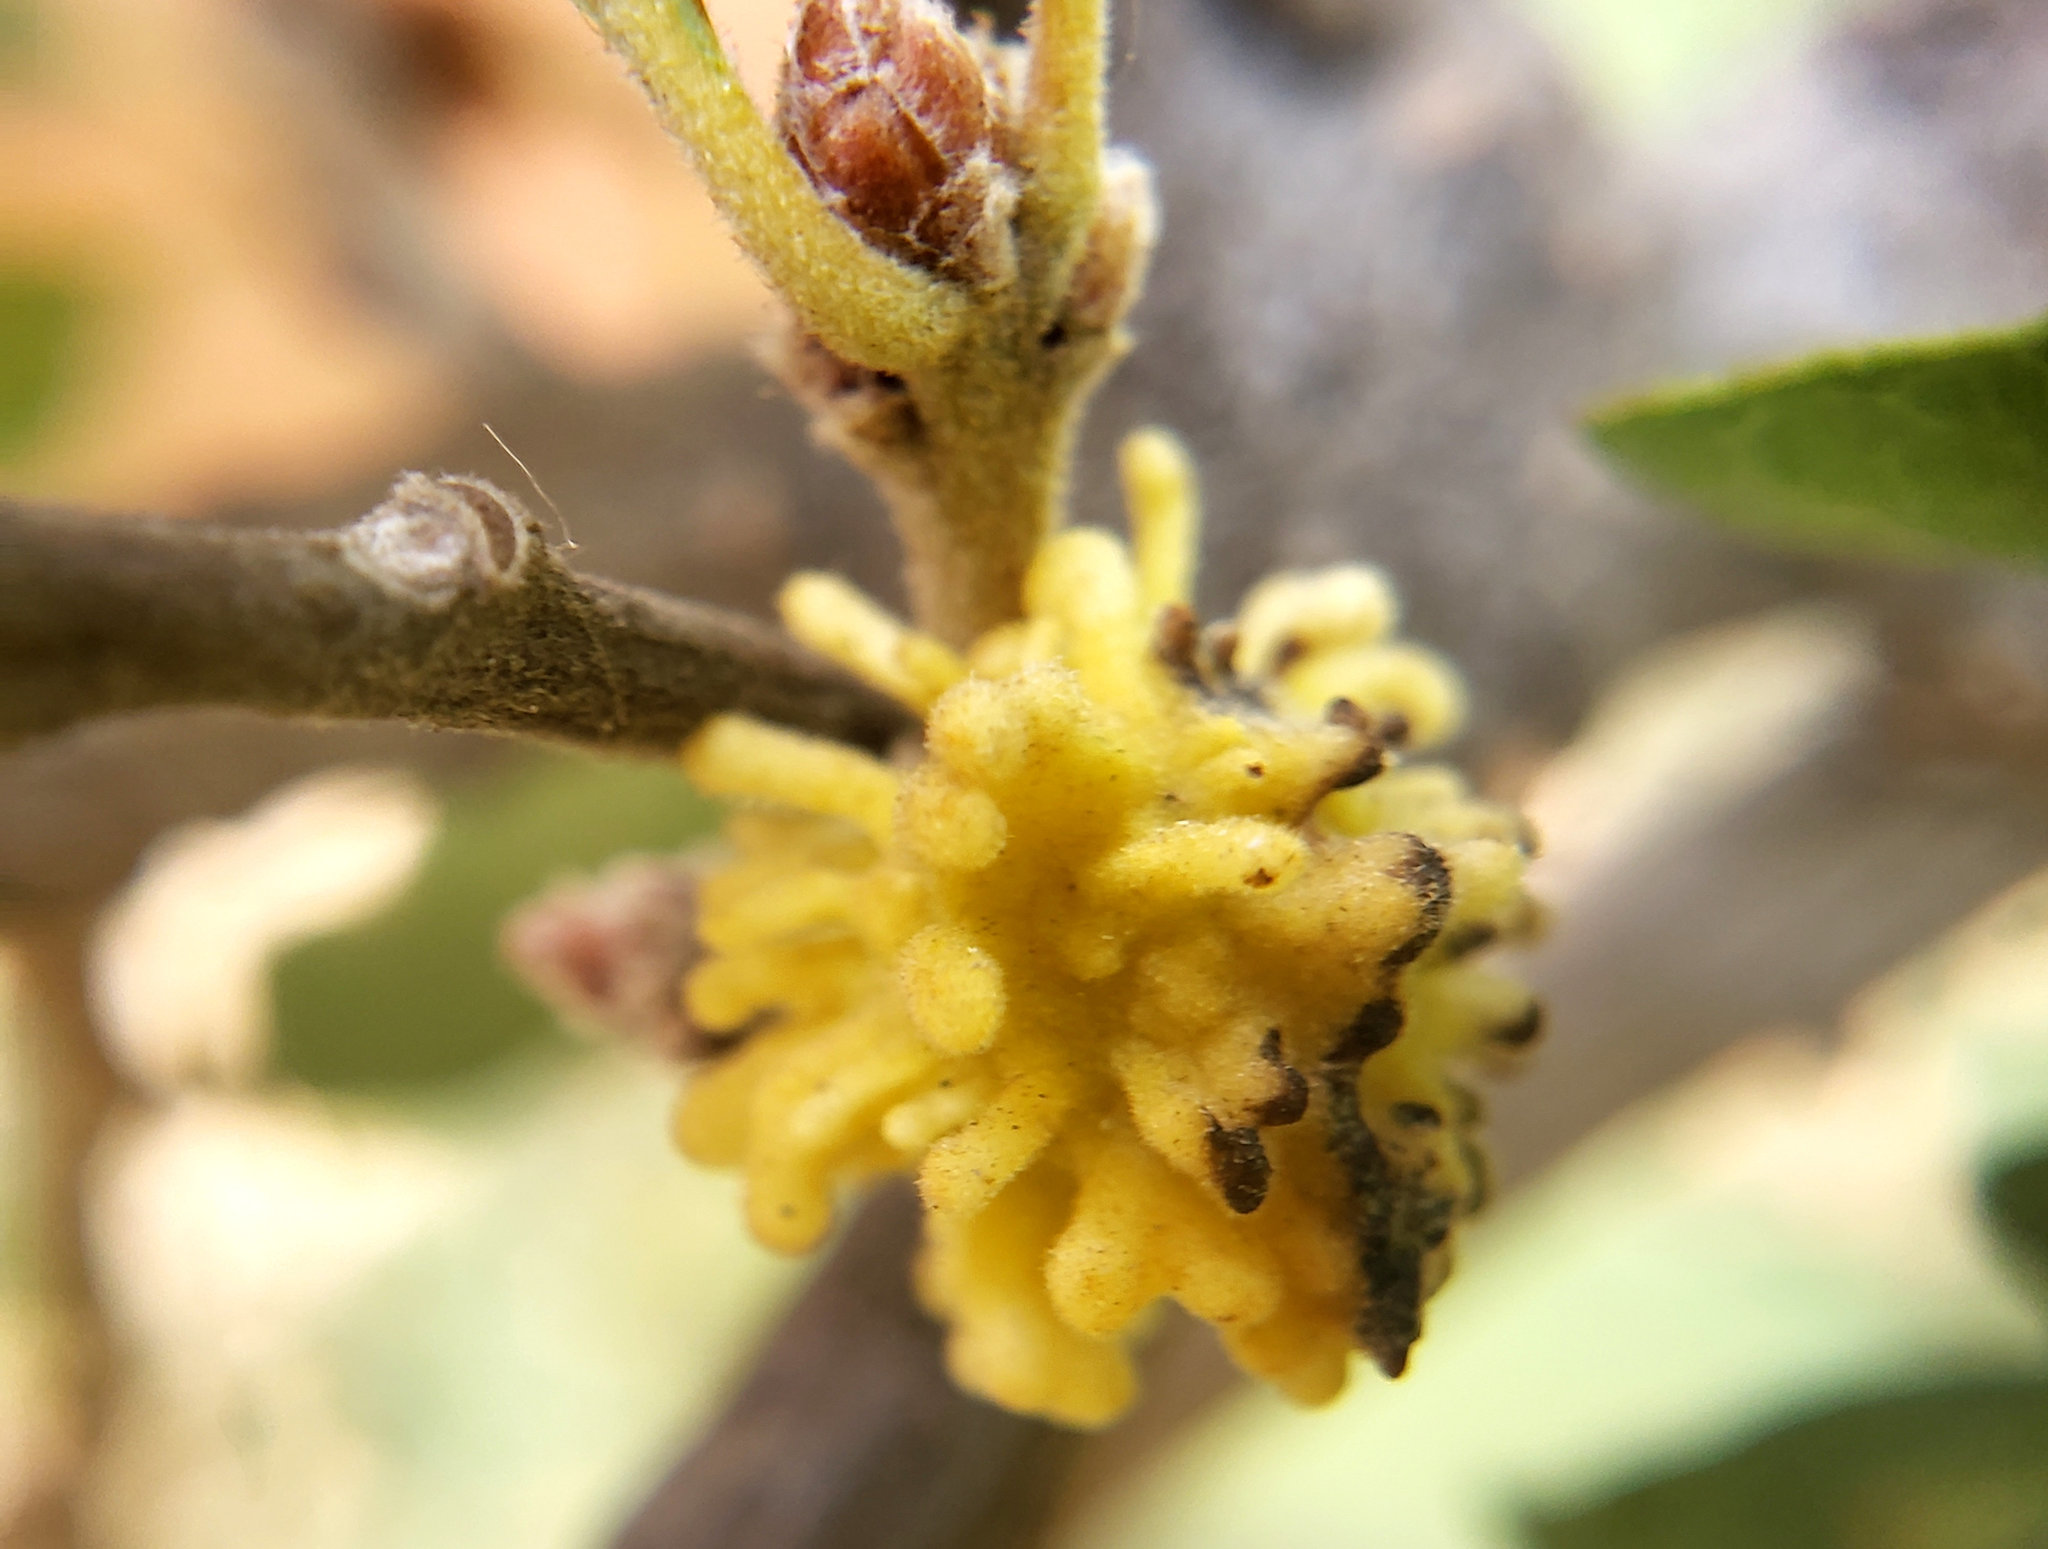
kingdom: Animalia
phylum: Arthropoda
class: Insecta
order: Hymenoptera
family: Cynipidae
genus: Burnettweldia
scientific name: Burnettweldia
